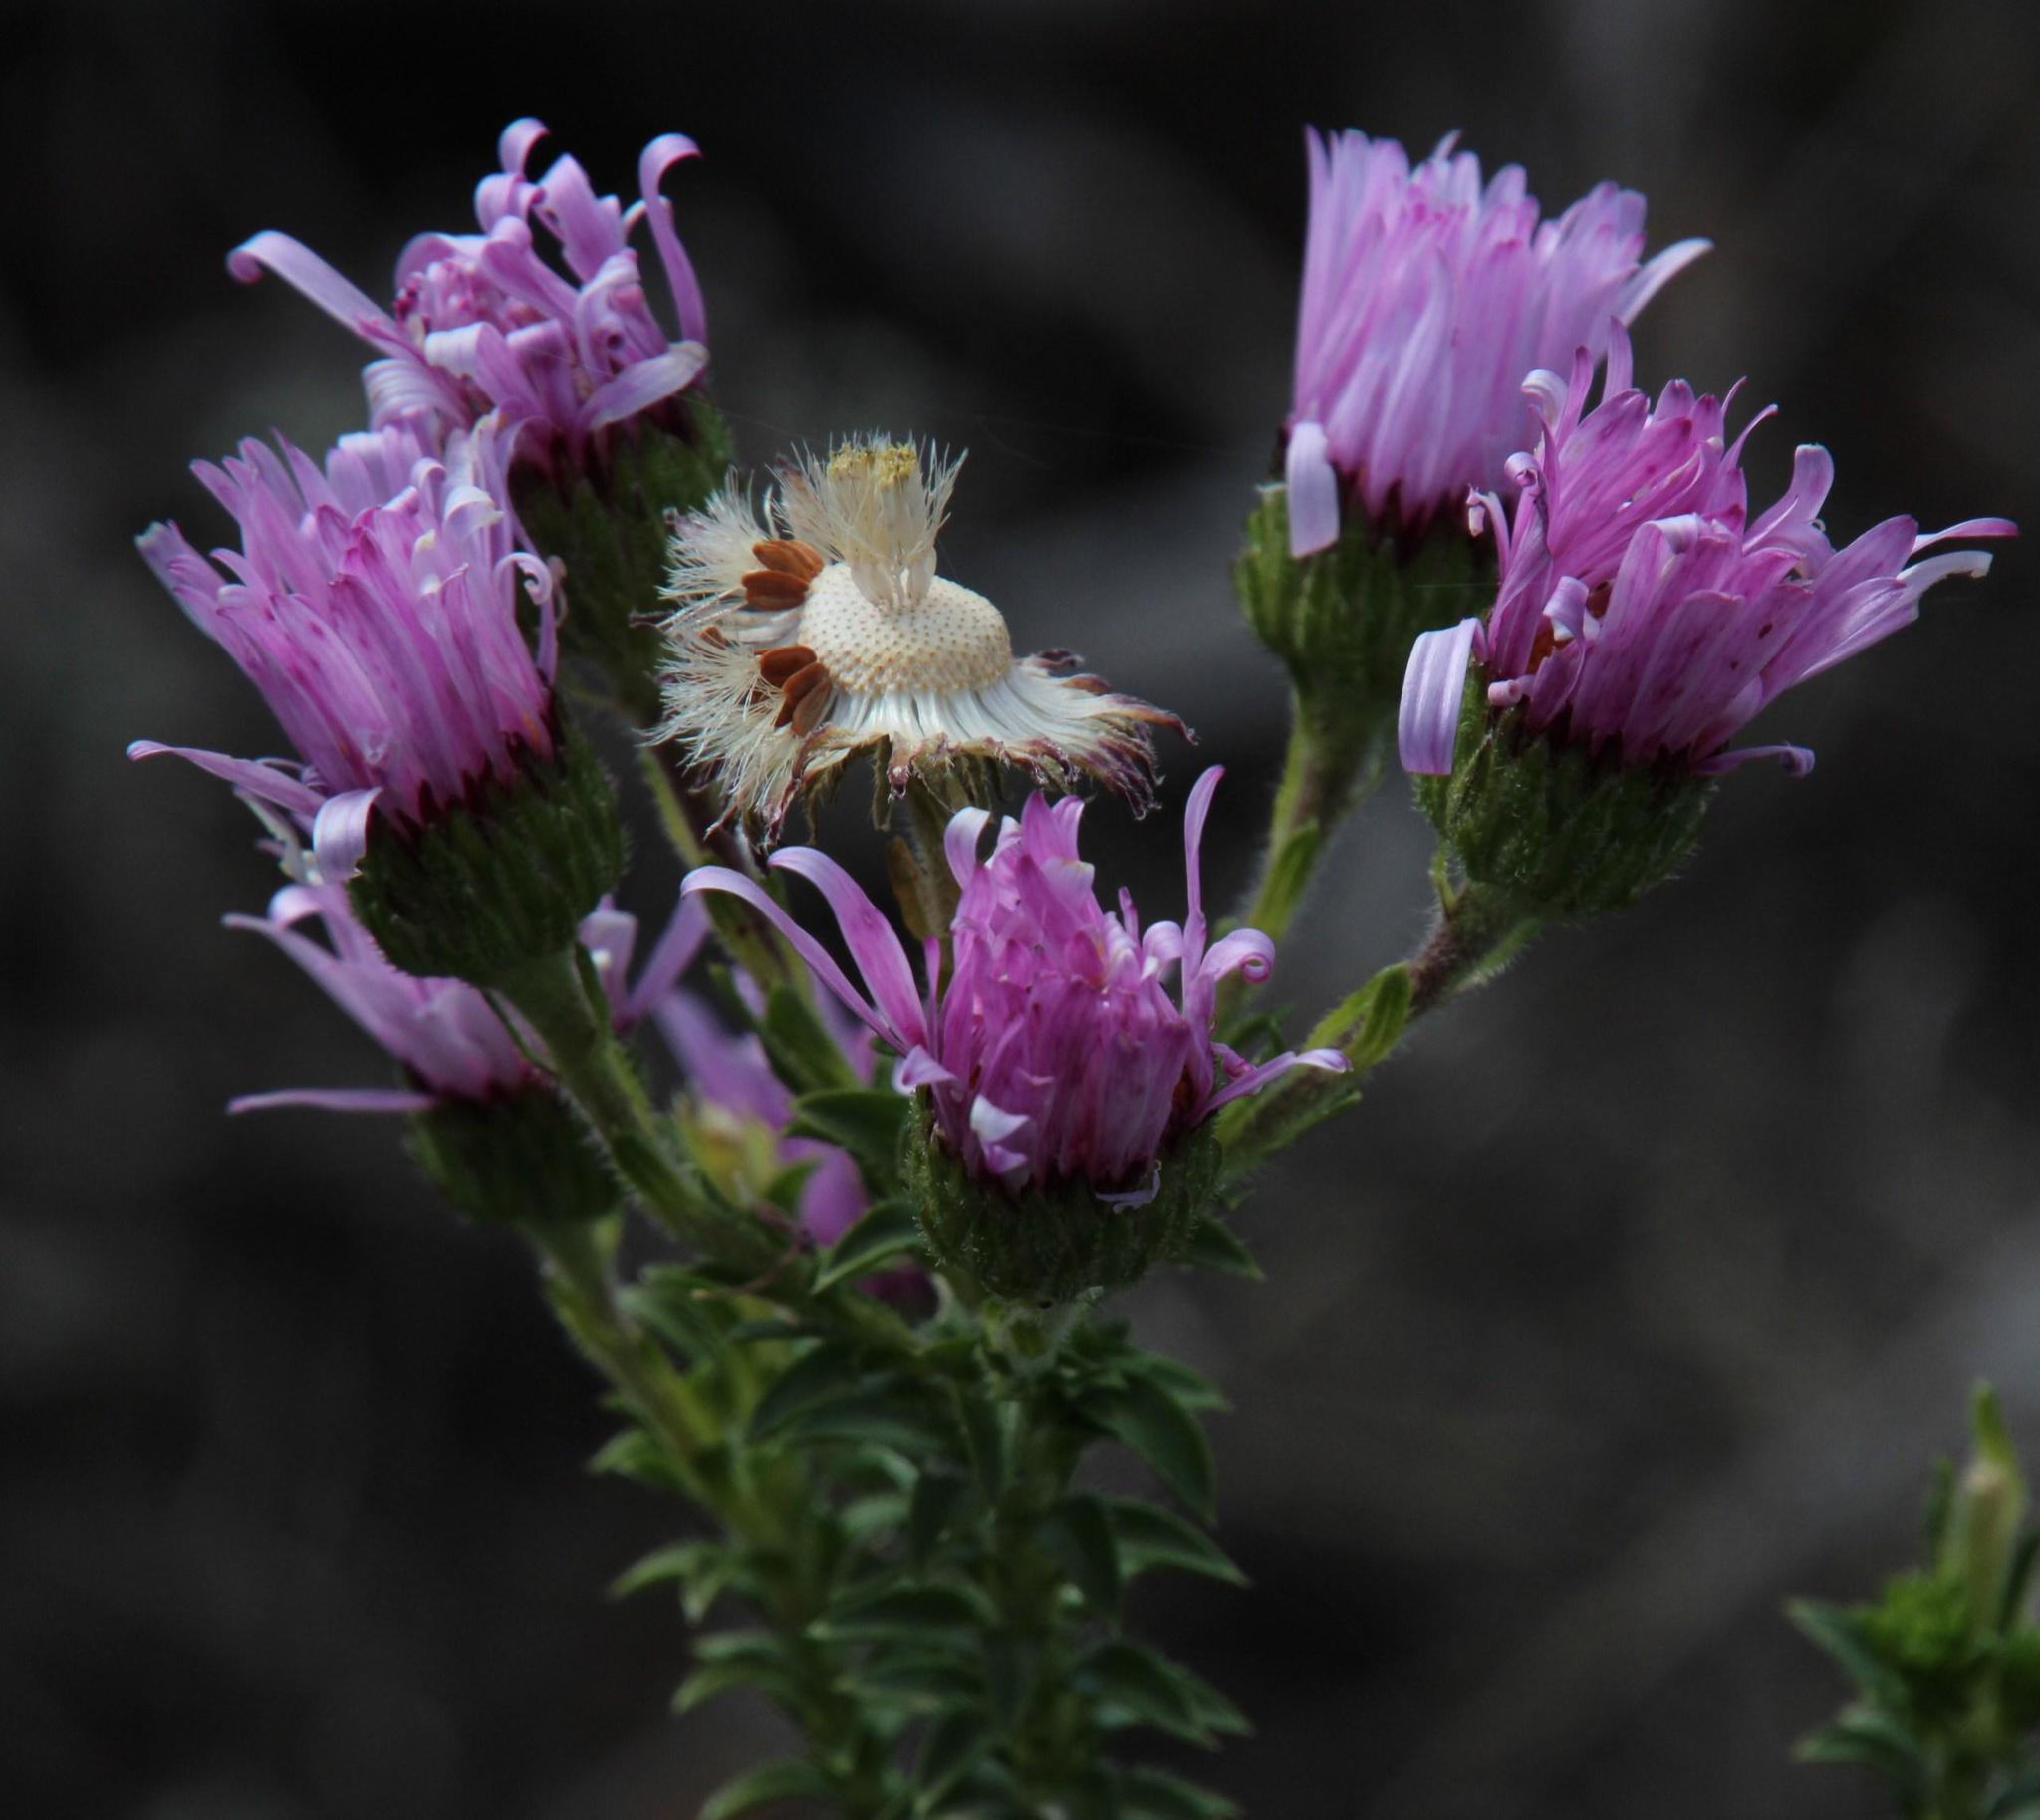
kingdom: Plantae
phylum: Tracheophyta
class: Magnoliopsida
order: Asterales
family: Asteraceae
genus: Felicia
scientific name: Felicia echinata
